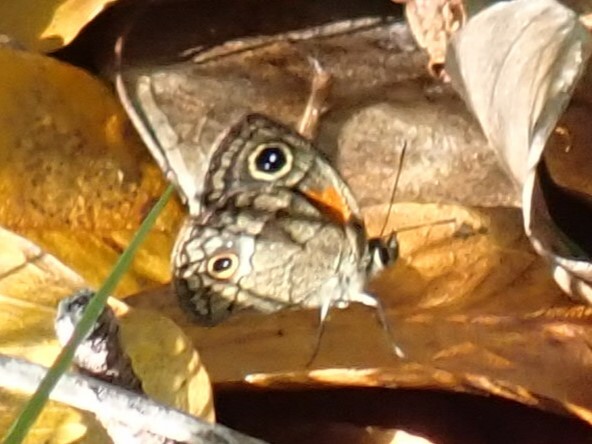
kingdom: Animalia
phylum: Arthropoda
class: Insecta
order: Lepidoptera
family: Nymphalidae
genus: Calisto
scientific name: Calisto obscura
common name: Obscure calisto
